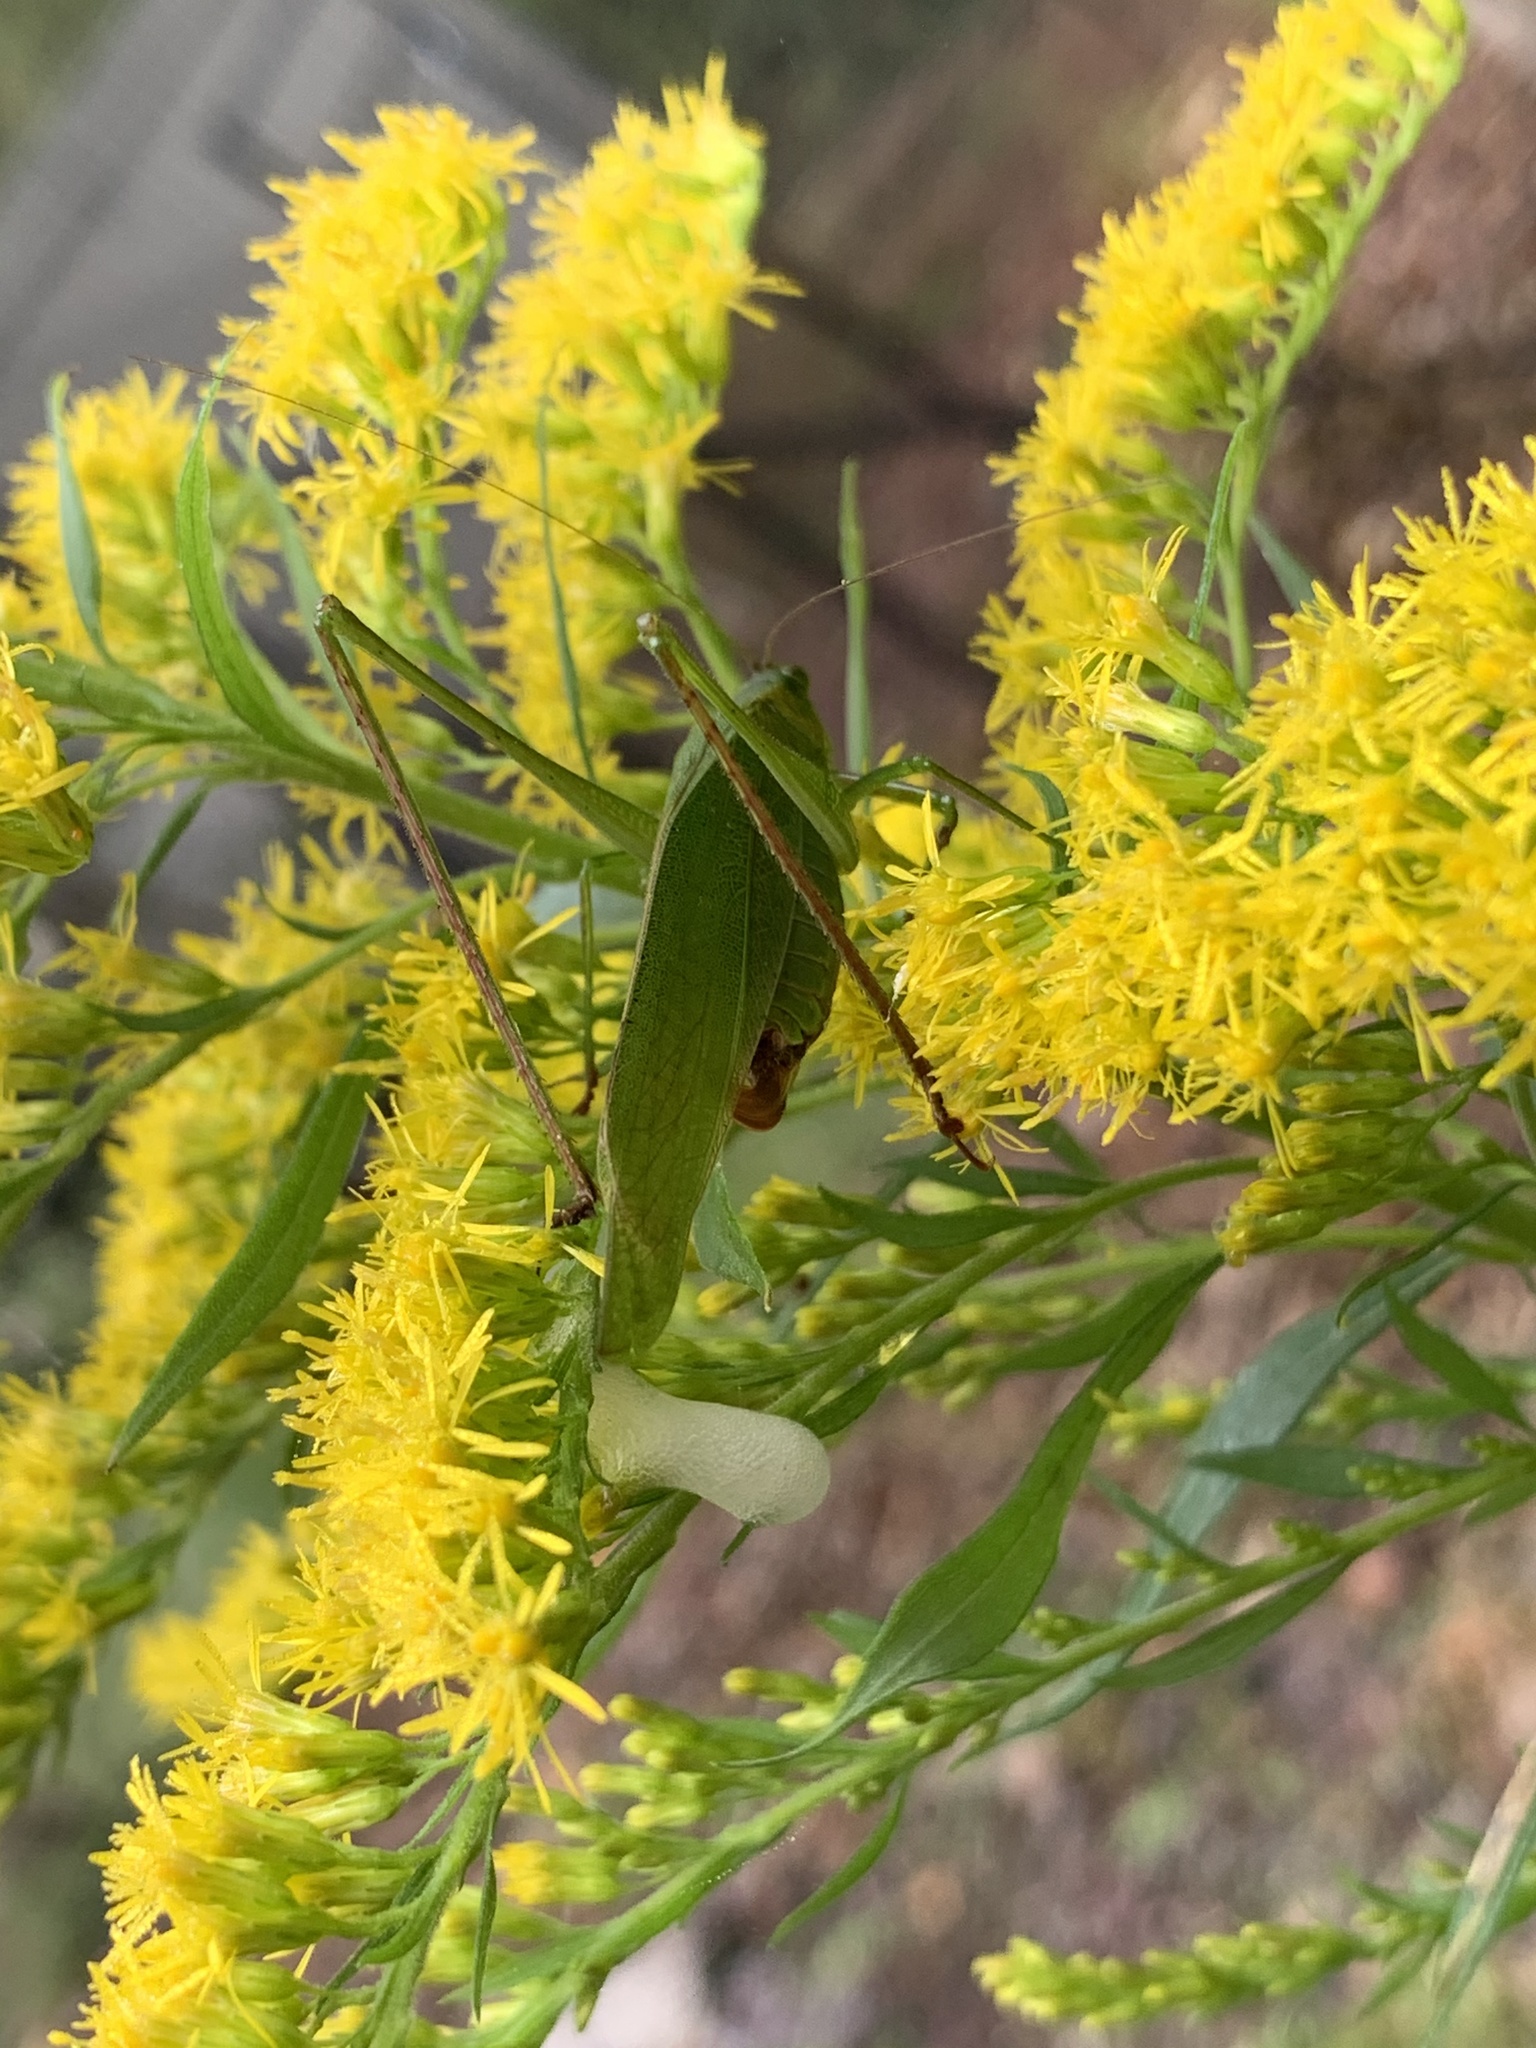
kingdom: Animalia
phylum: Arthropoda
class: Insecta
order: Orthoptera
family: Tettigoniidae
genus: Scudderia
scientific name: Scudderia furcata
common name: Fork-tailed bush katydid
